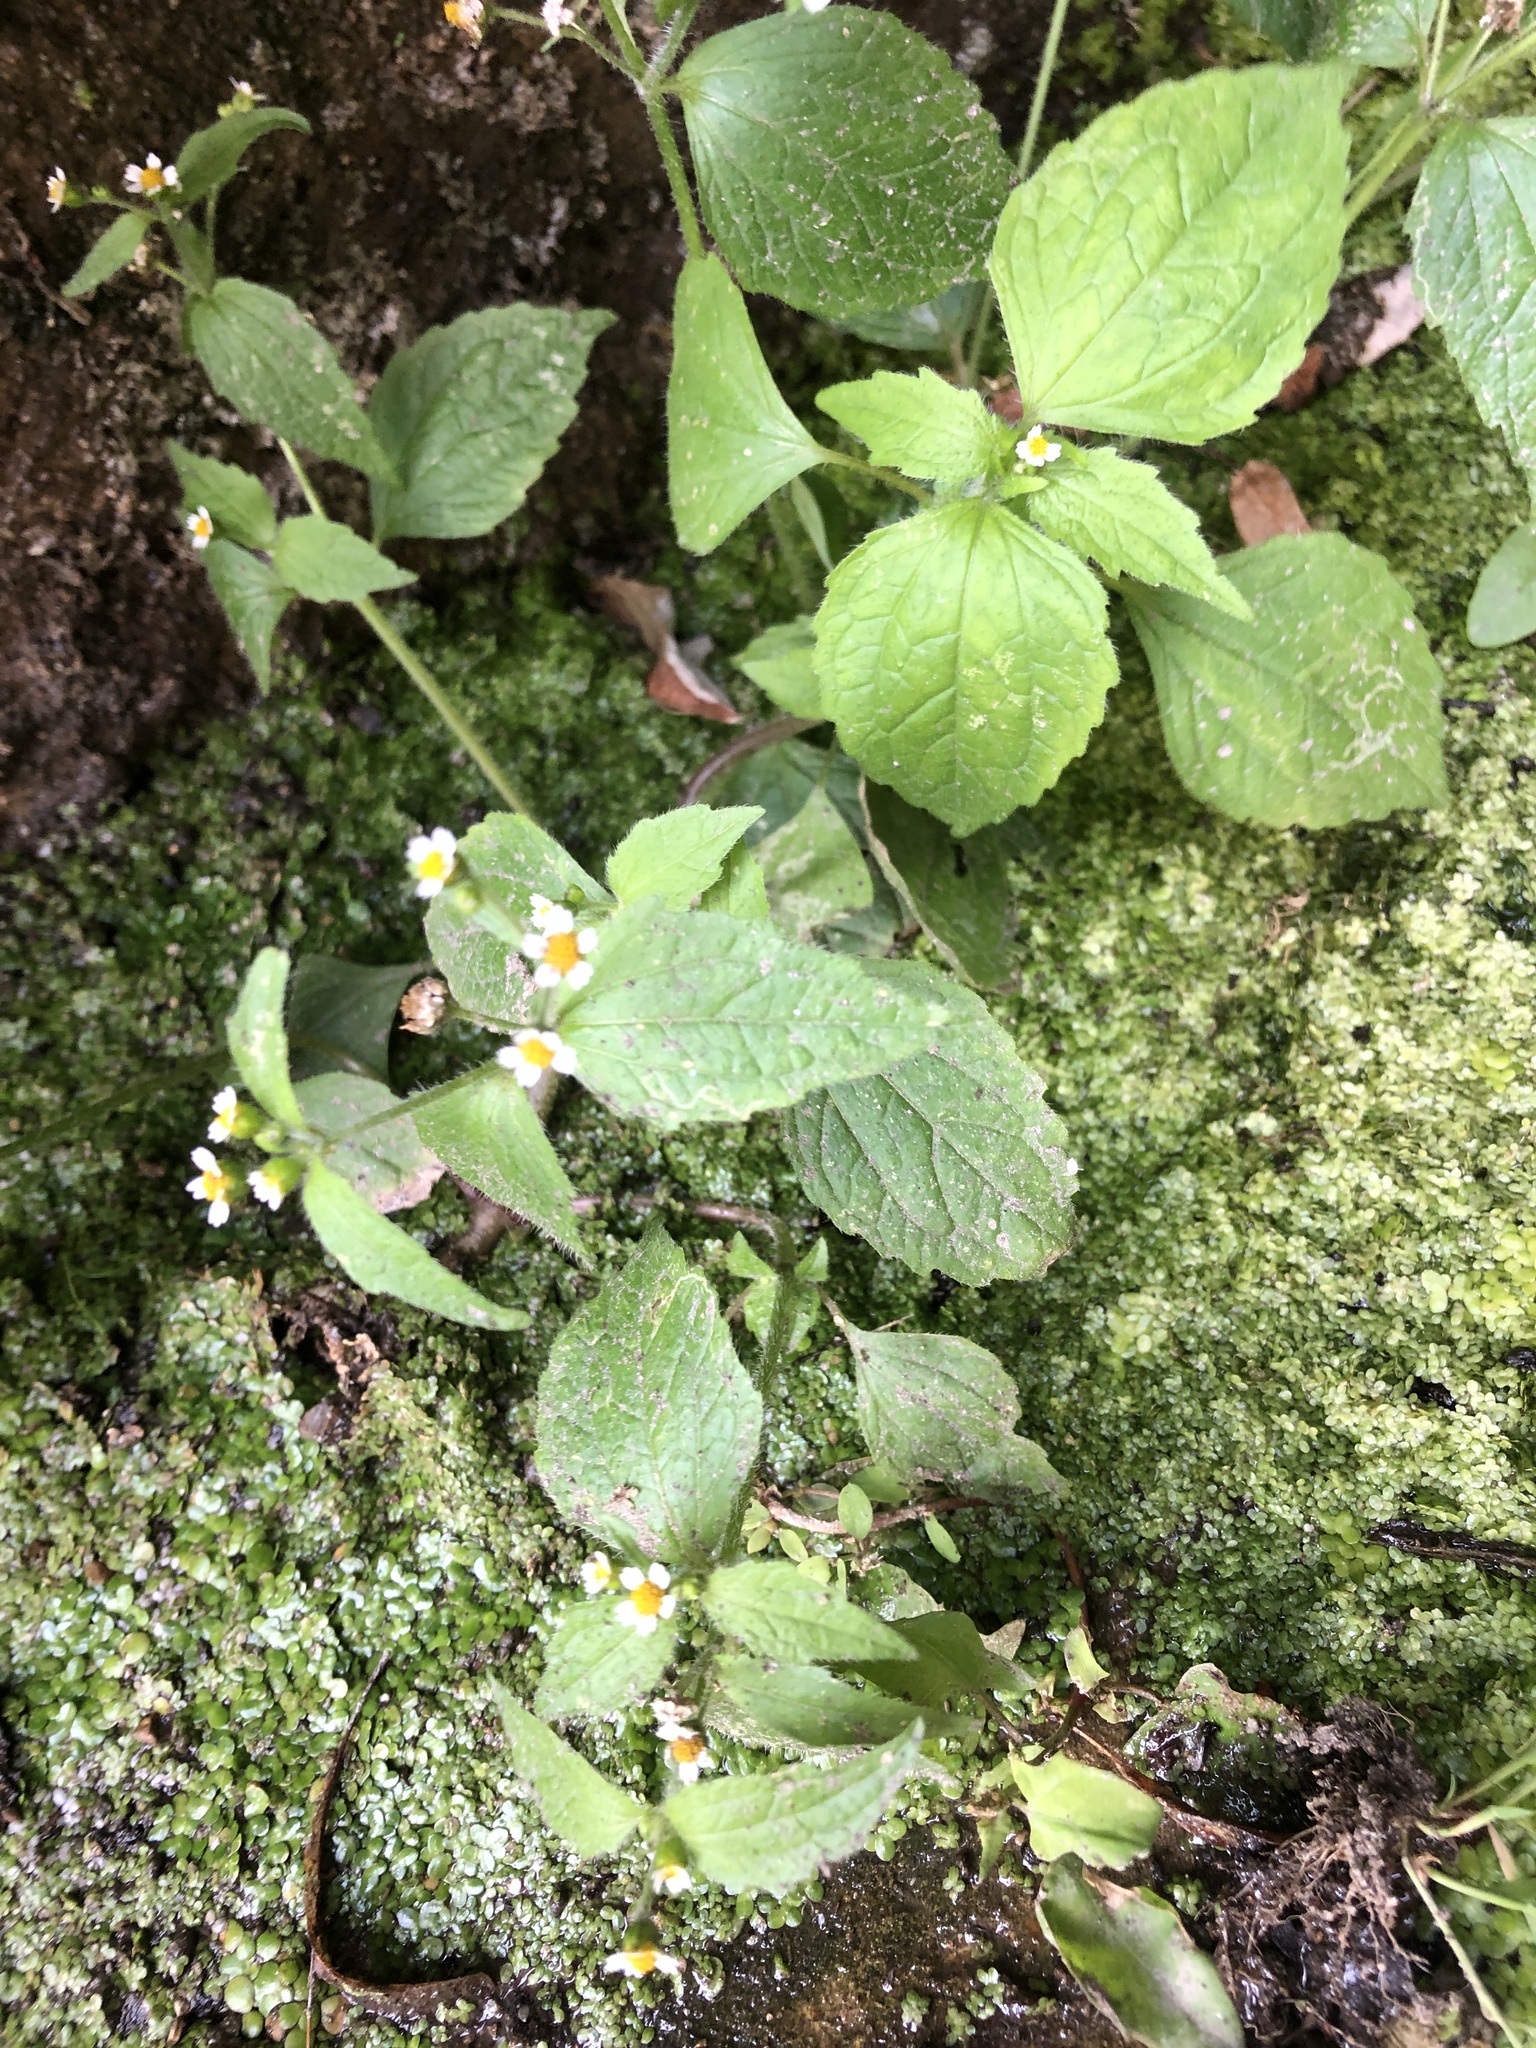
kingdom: Plantae
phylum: Tracheophyta
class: Magnoliopsida
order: Asterales
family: Asteraceae
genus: Galinsoga
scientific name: Galinsoga quadriradiata
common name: Shaggy soldier
